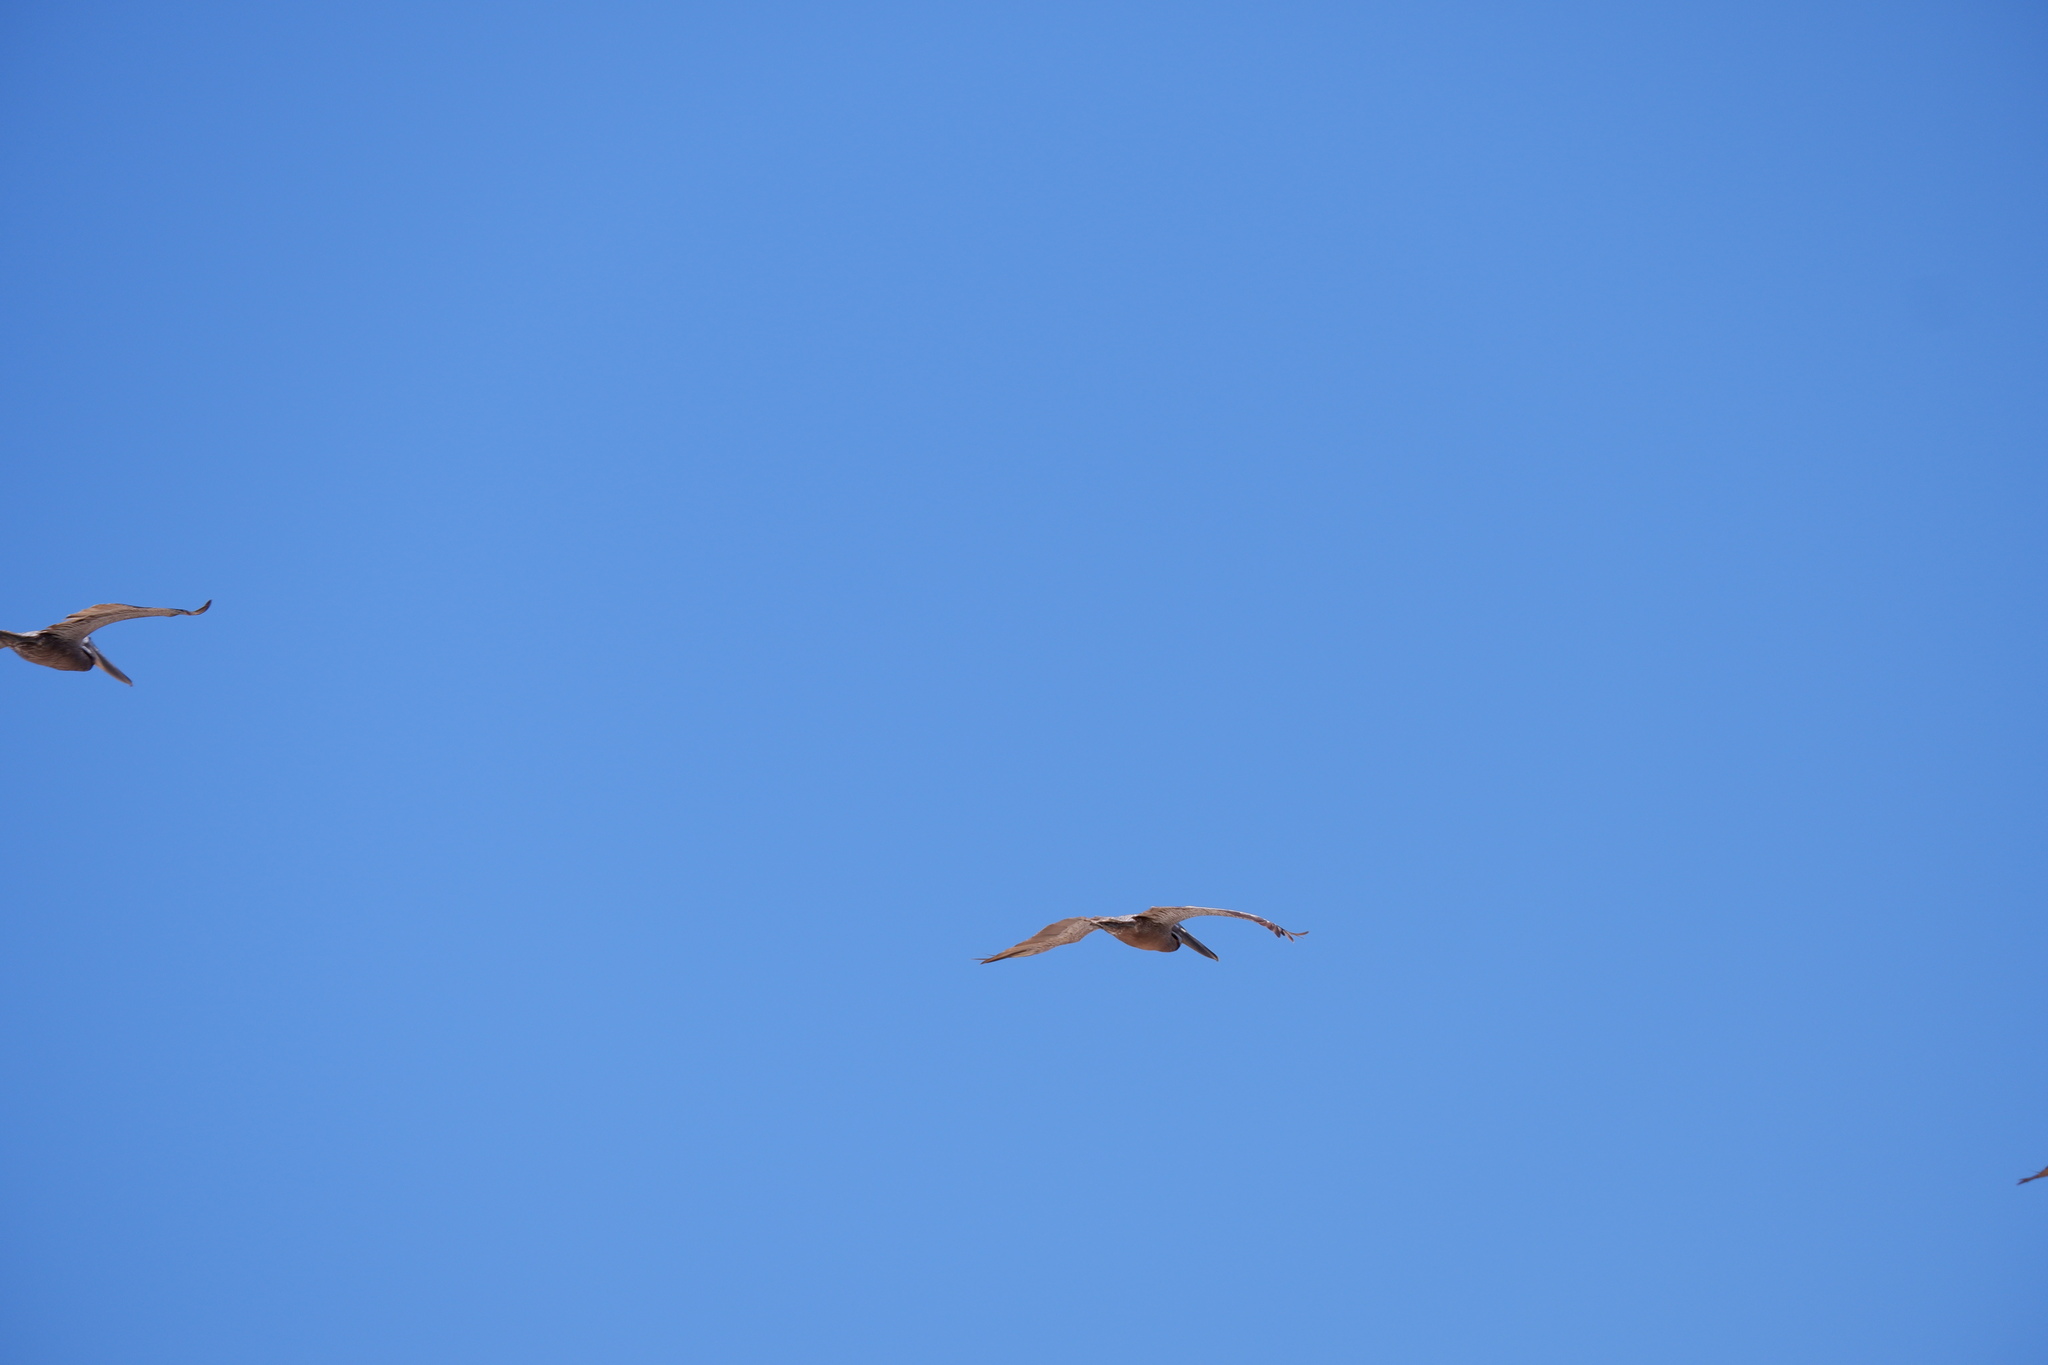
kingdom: Animalia
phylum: Chordata
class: Aves
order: Pelecaniformes
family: Pelecanidae
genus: Pelecanus
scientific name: Pelecanus occidentalis
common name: Brown pelican
